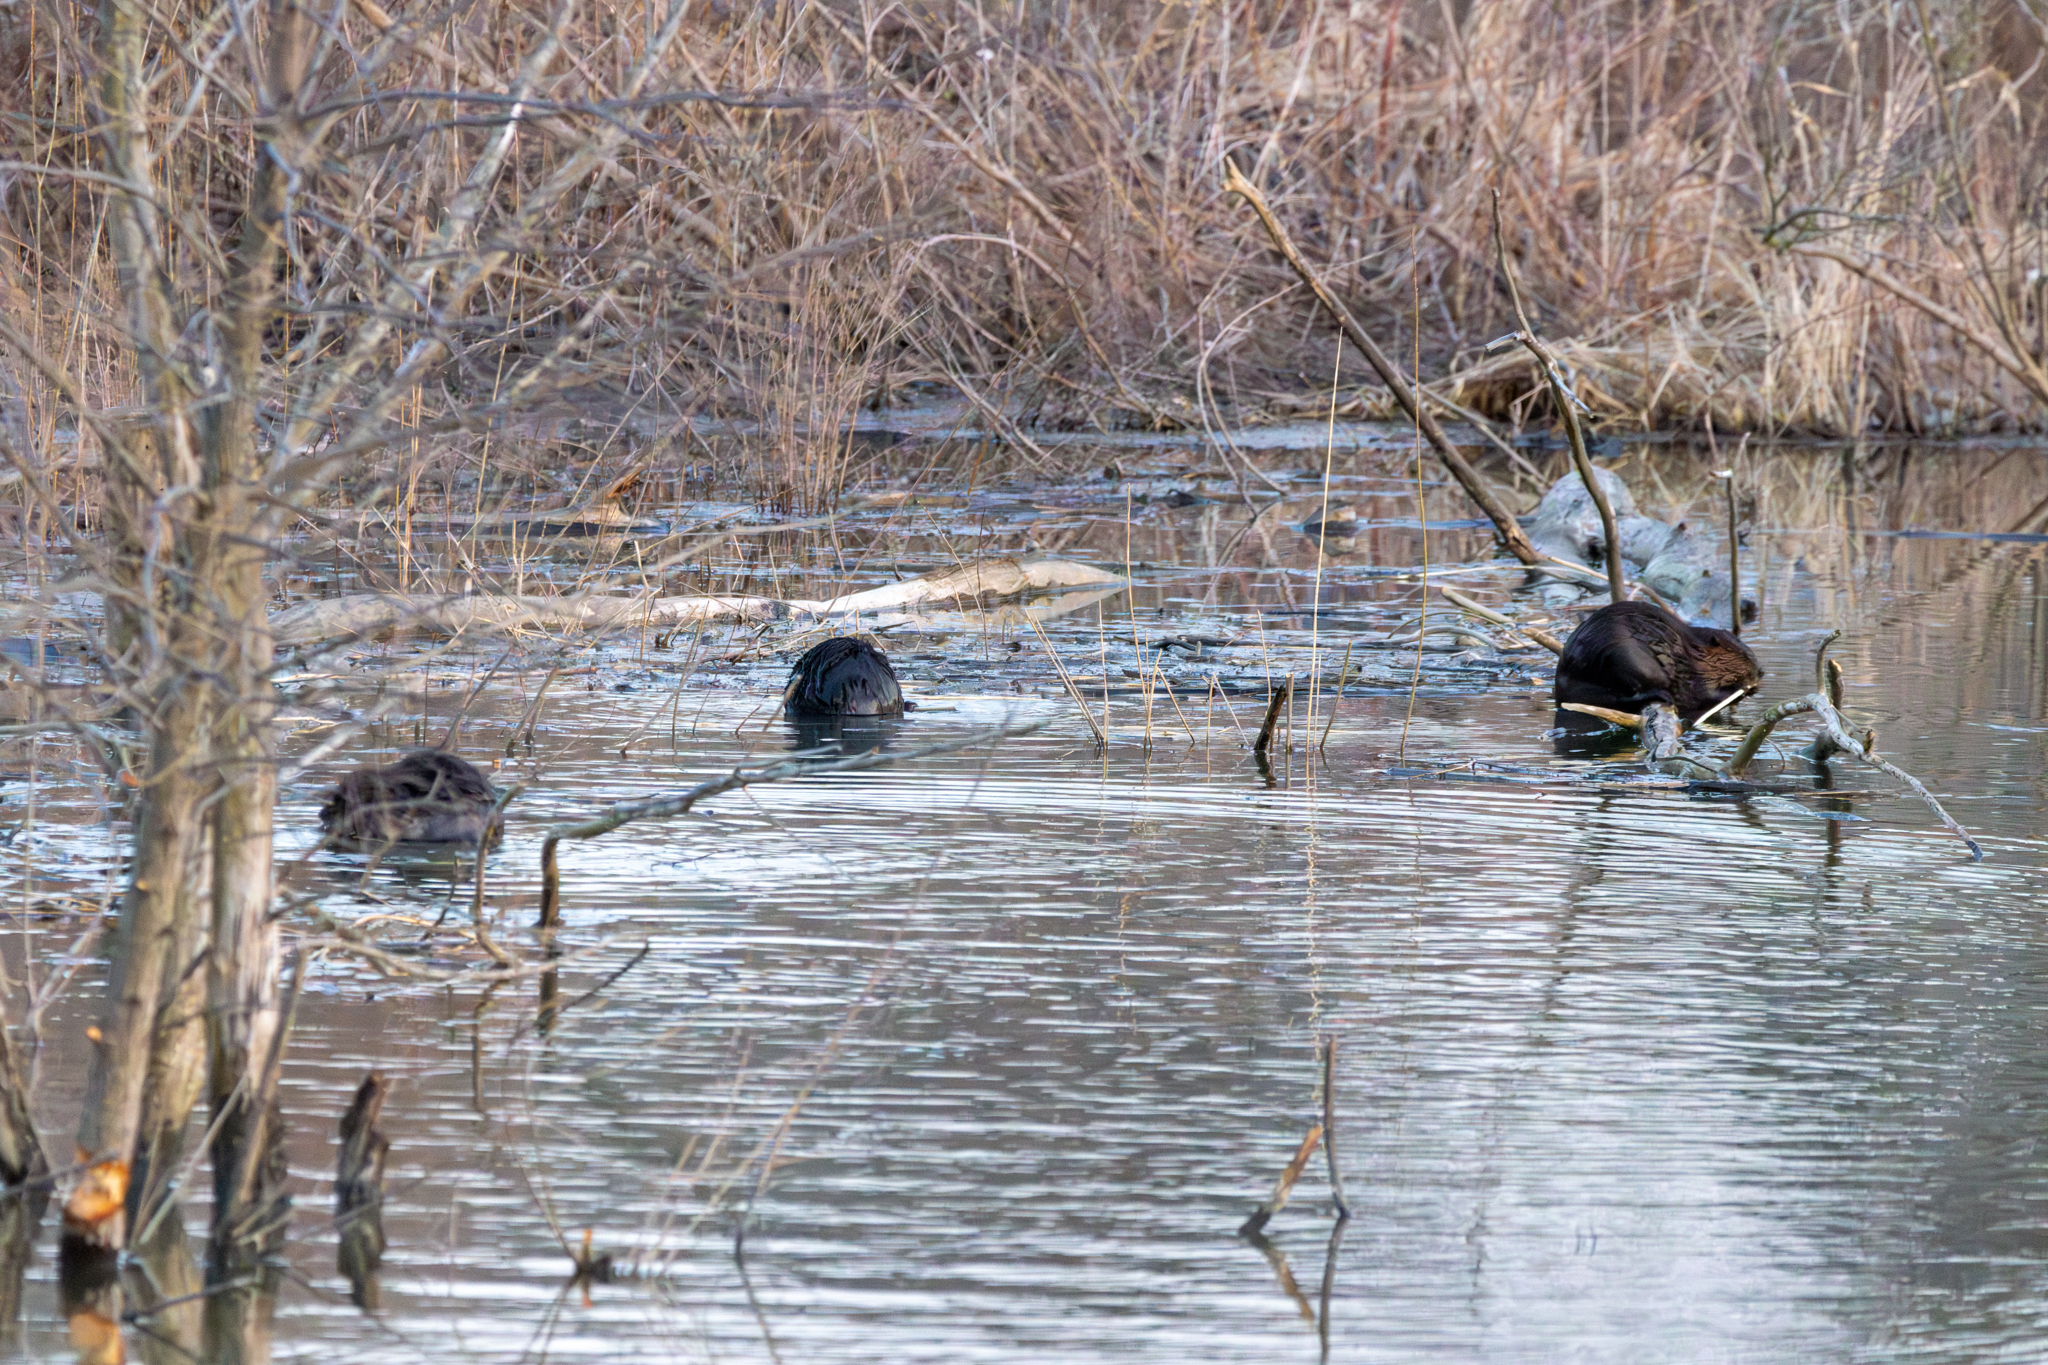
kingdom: Animalia
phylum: Chordata
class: Mammalia
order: Rodentia
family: Castoridae
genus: Castor
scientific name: Castor canadensis
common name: American beaver
